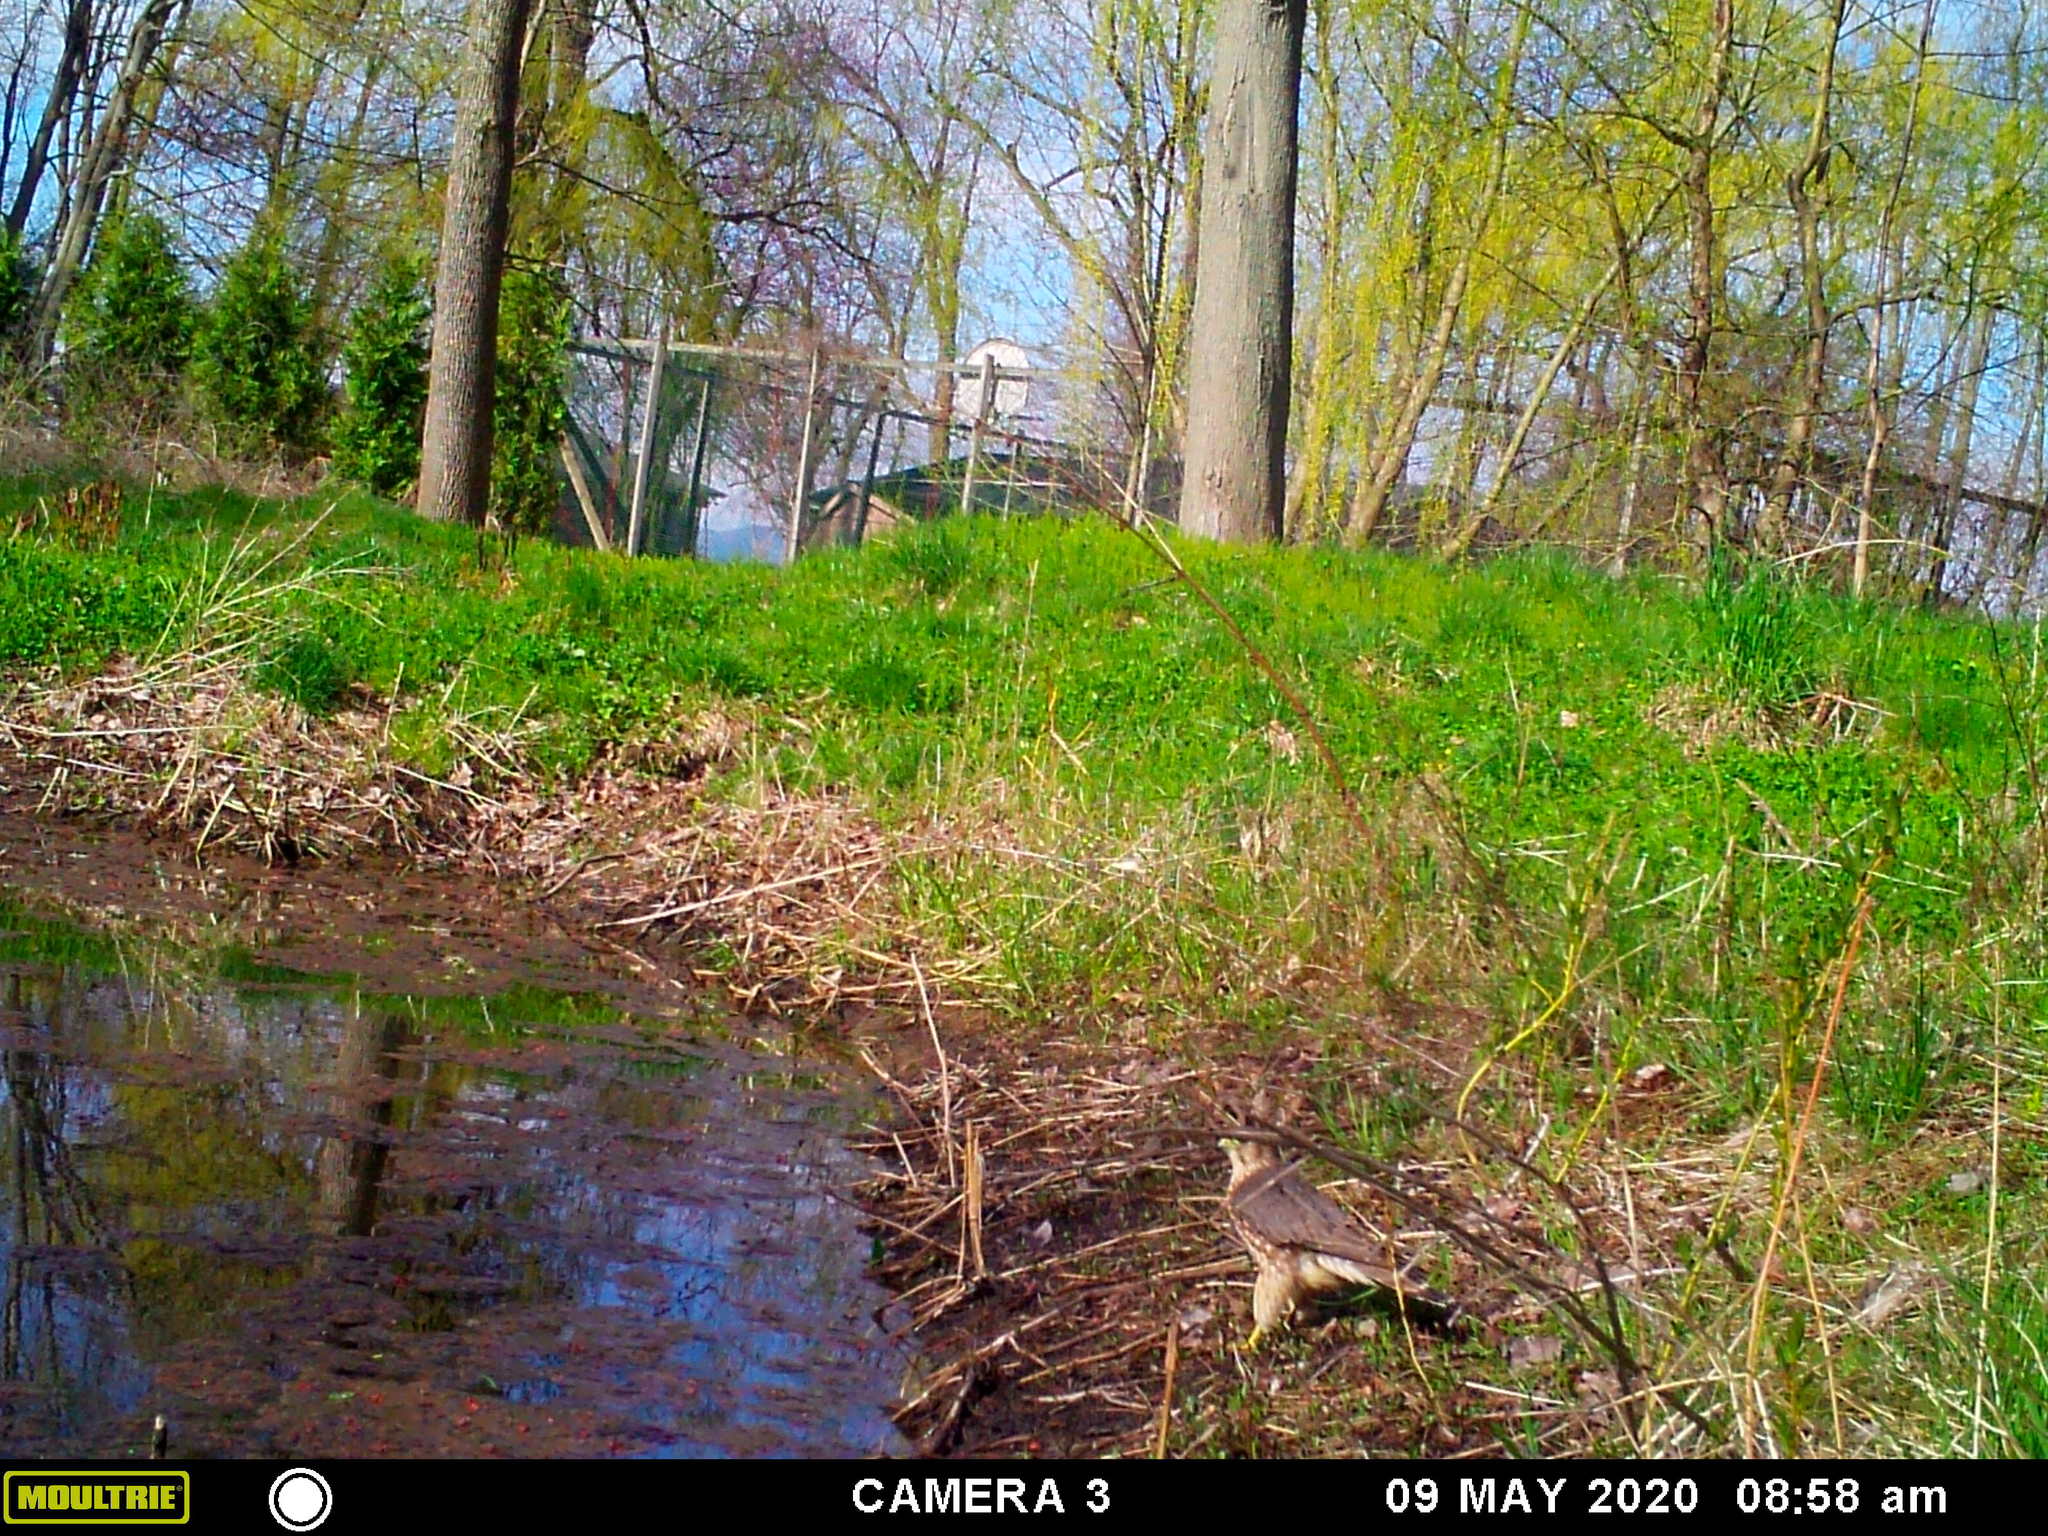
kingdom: Animalia
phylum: Chordata
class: Aves
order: Falconiformes
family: Falconidae
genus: Falco
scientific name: Falco columbarius
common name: Merlin
